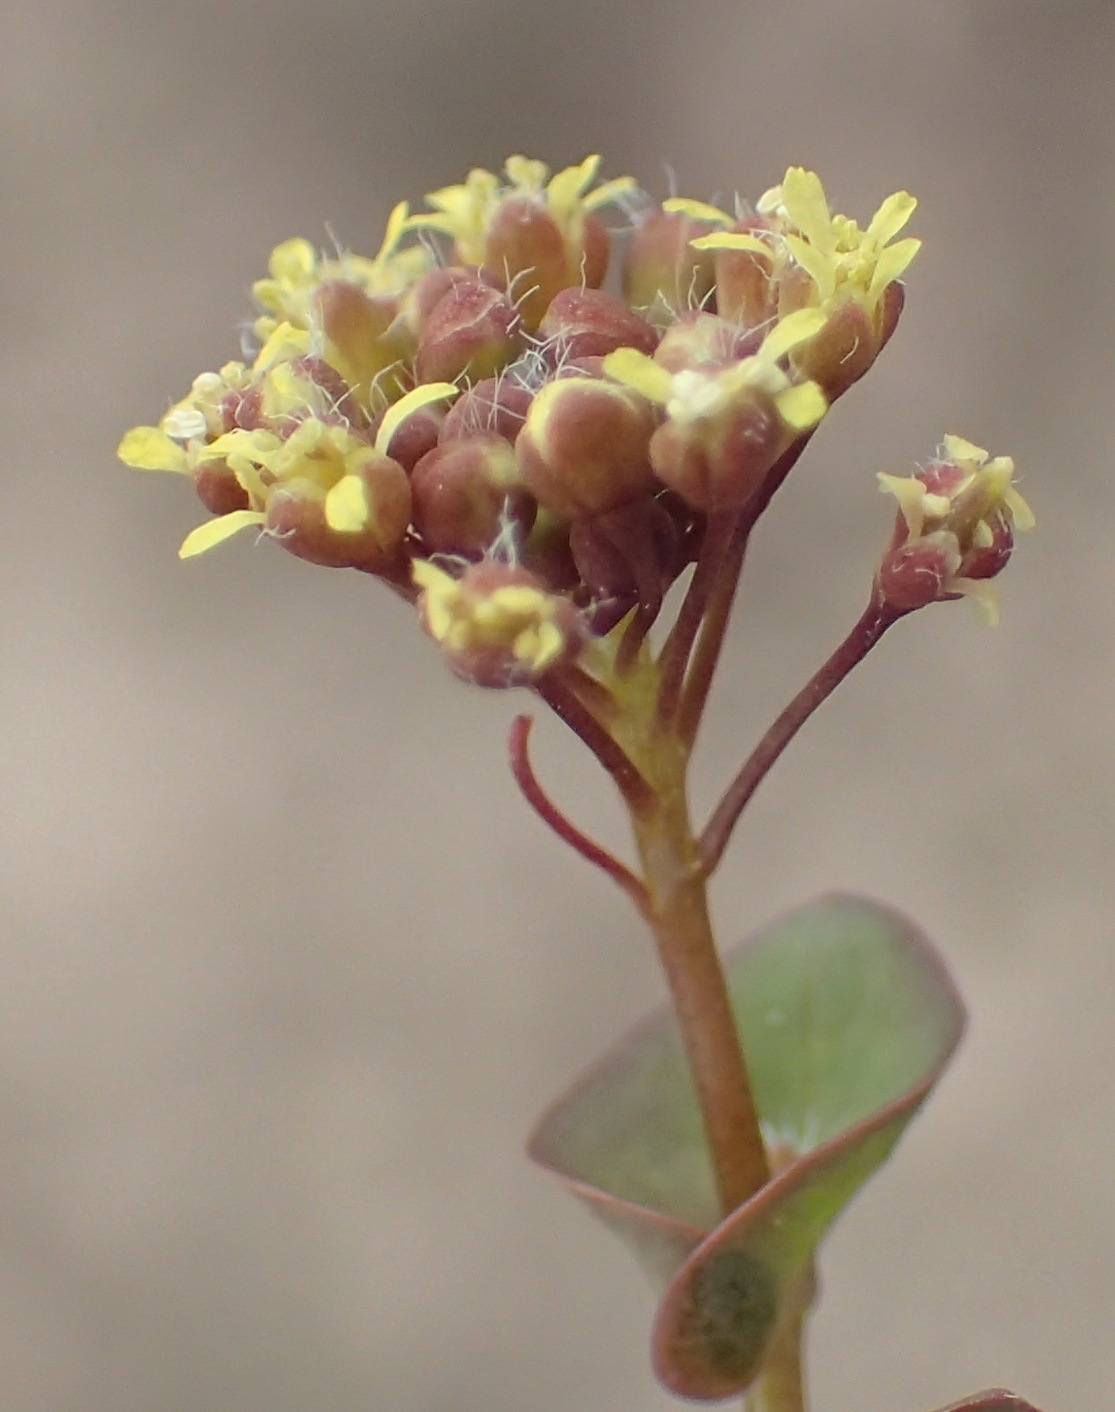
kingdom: Plantae
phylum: Tracheophyta
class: Magnoliopsida
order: Brassicales
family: Brassicaceae
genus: Lepidium
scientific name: Lepidium perfoliatum
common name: Perfoliate pepperwort
